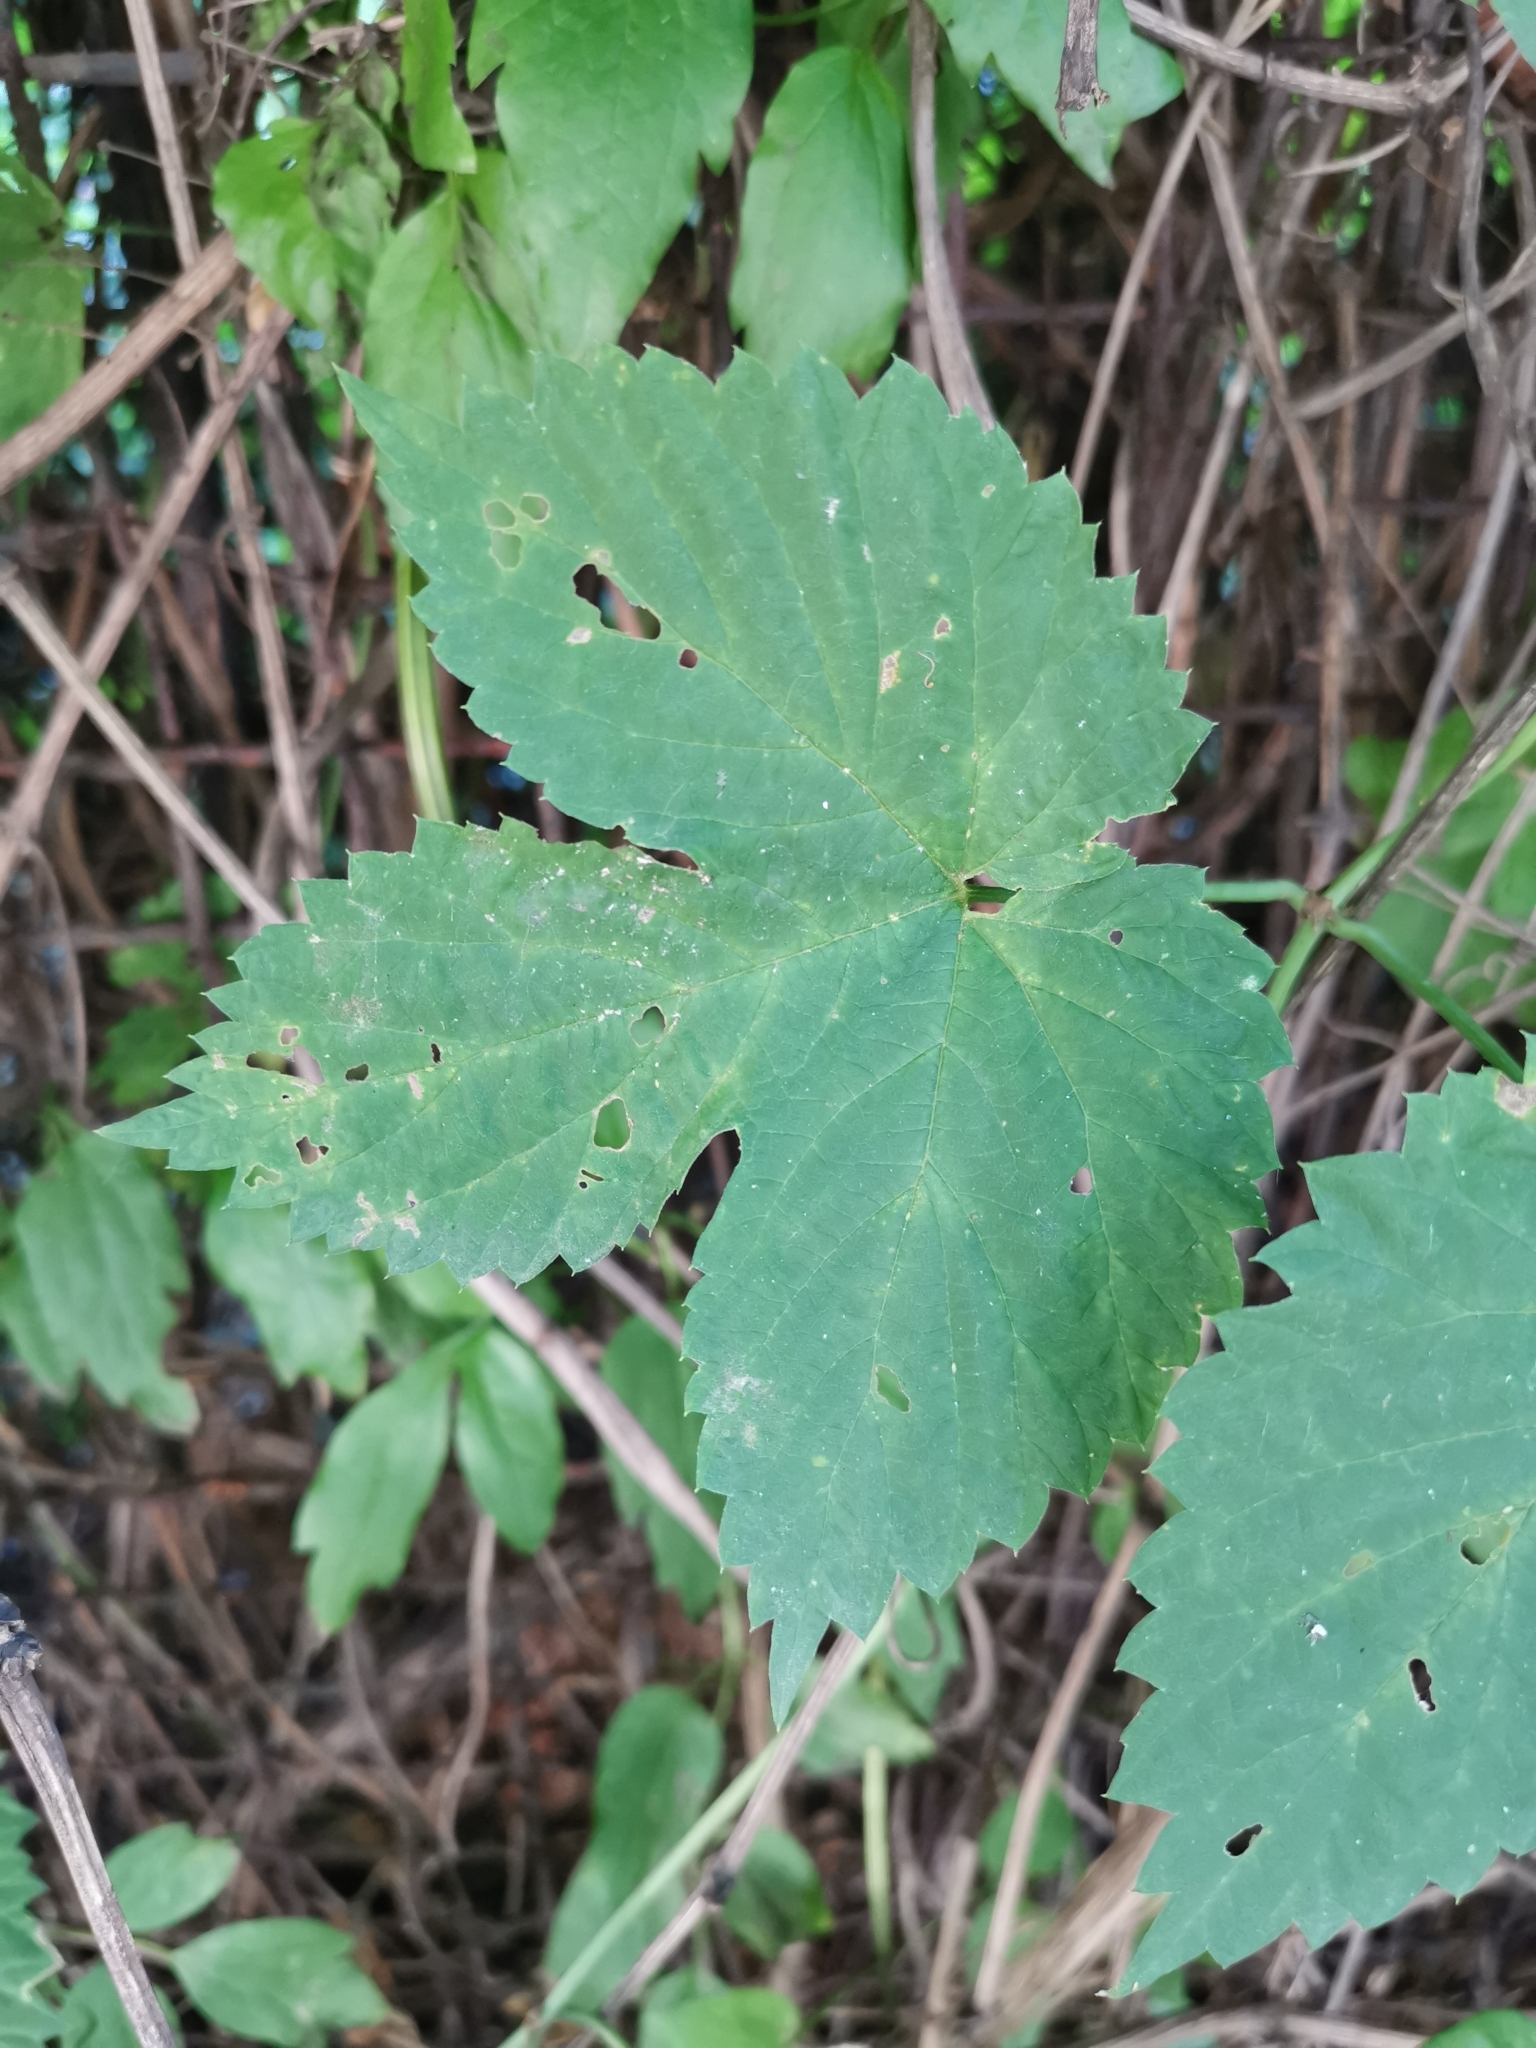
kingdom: Plantae
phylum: Tracheophyta
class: Magnoliopsida
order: Rosales
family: Cannabaceae
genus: Humulus
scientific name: Humulus lupulus
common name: Hop
